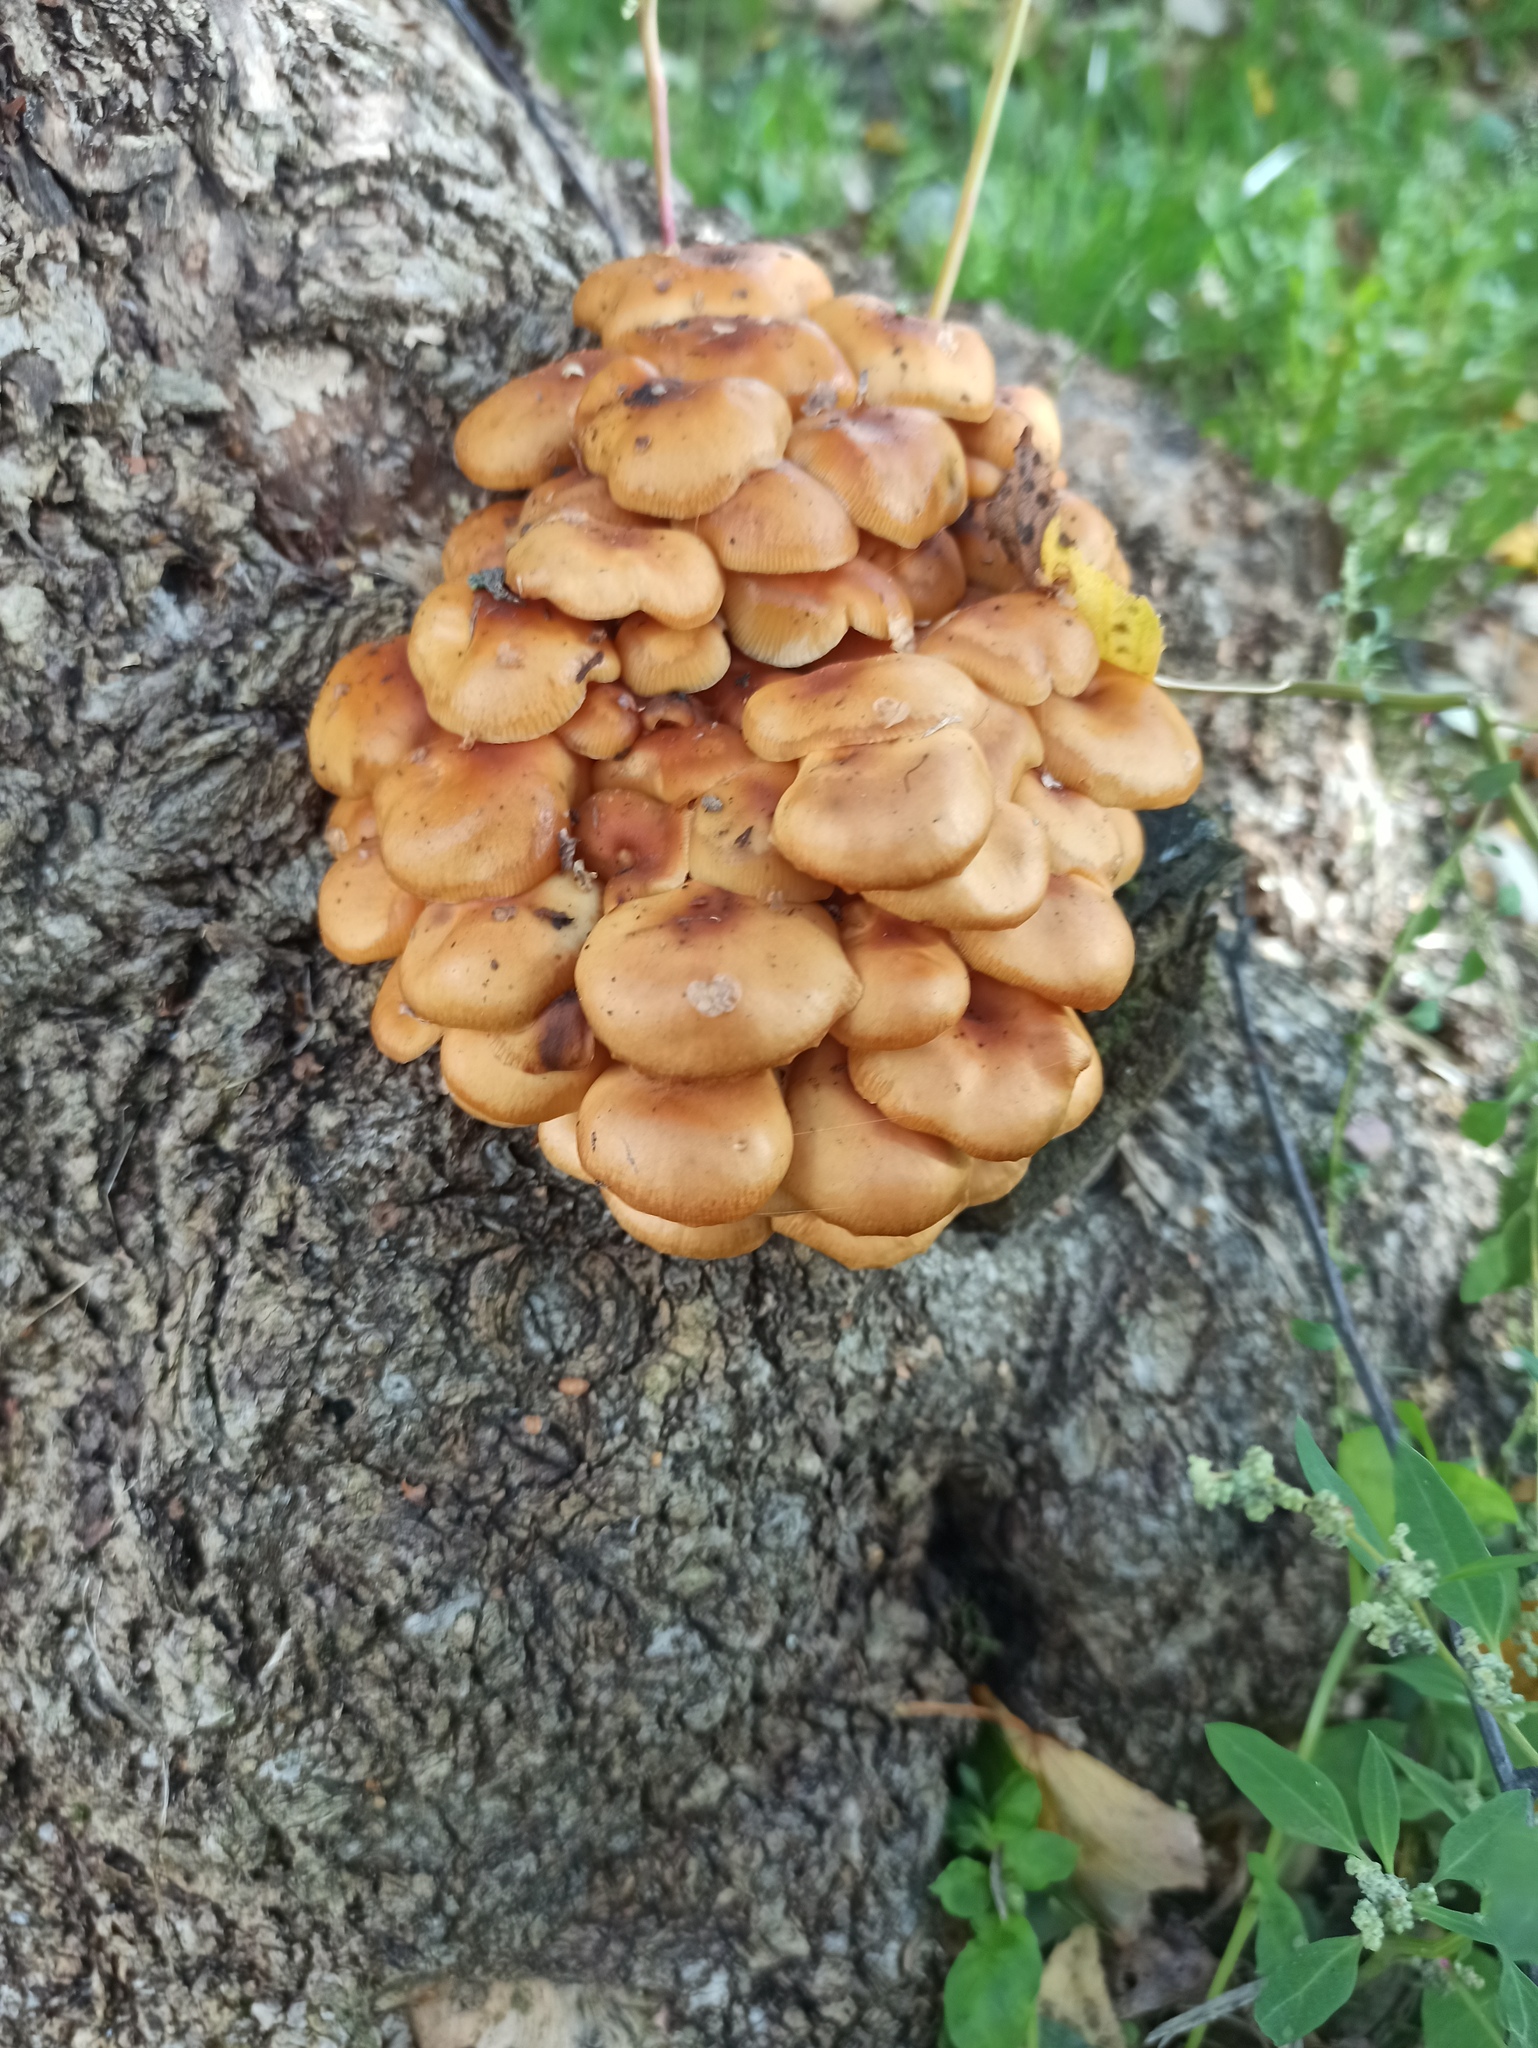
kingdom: Fungi
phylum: Basidiomycota
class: Agaricomycetes
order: Agaricales
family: Strophariaceae
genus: Kuehneromyces
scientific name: Kuehneromyces mutabilis
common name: Sheathed woodtuft
